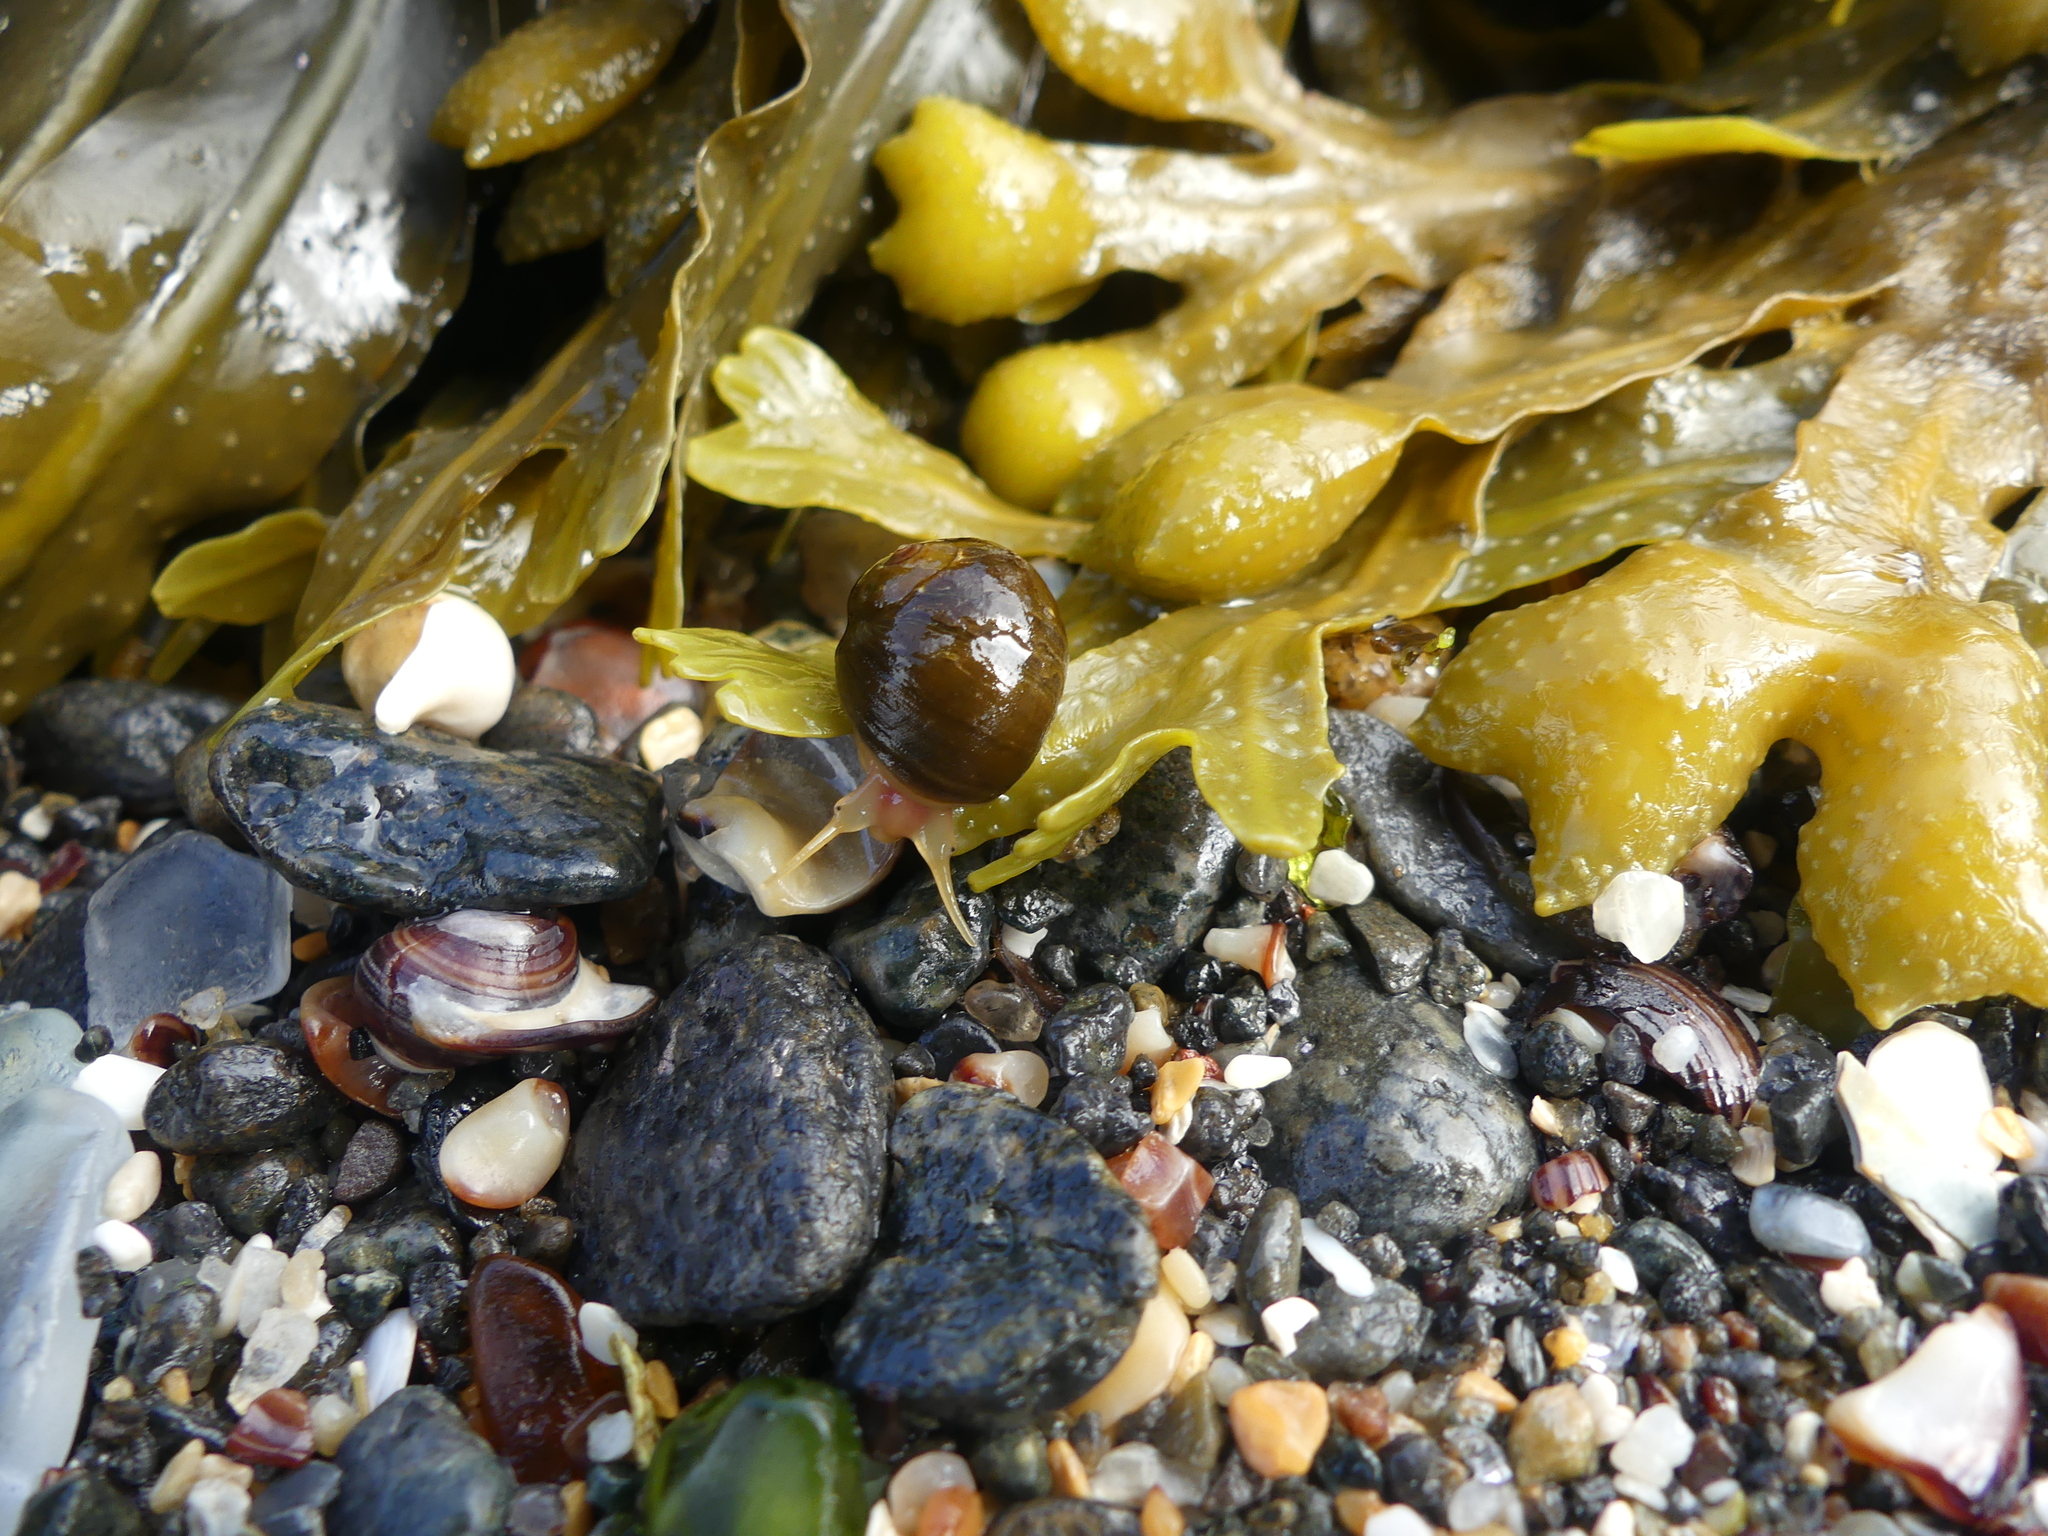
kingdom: Animalia
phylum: Mollusca
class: Gastropoda
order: Littorinimorpha
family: Littorinidae
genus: Littorina
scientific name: Littorina obtusata
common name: Flat periwinkle
